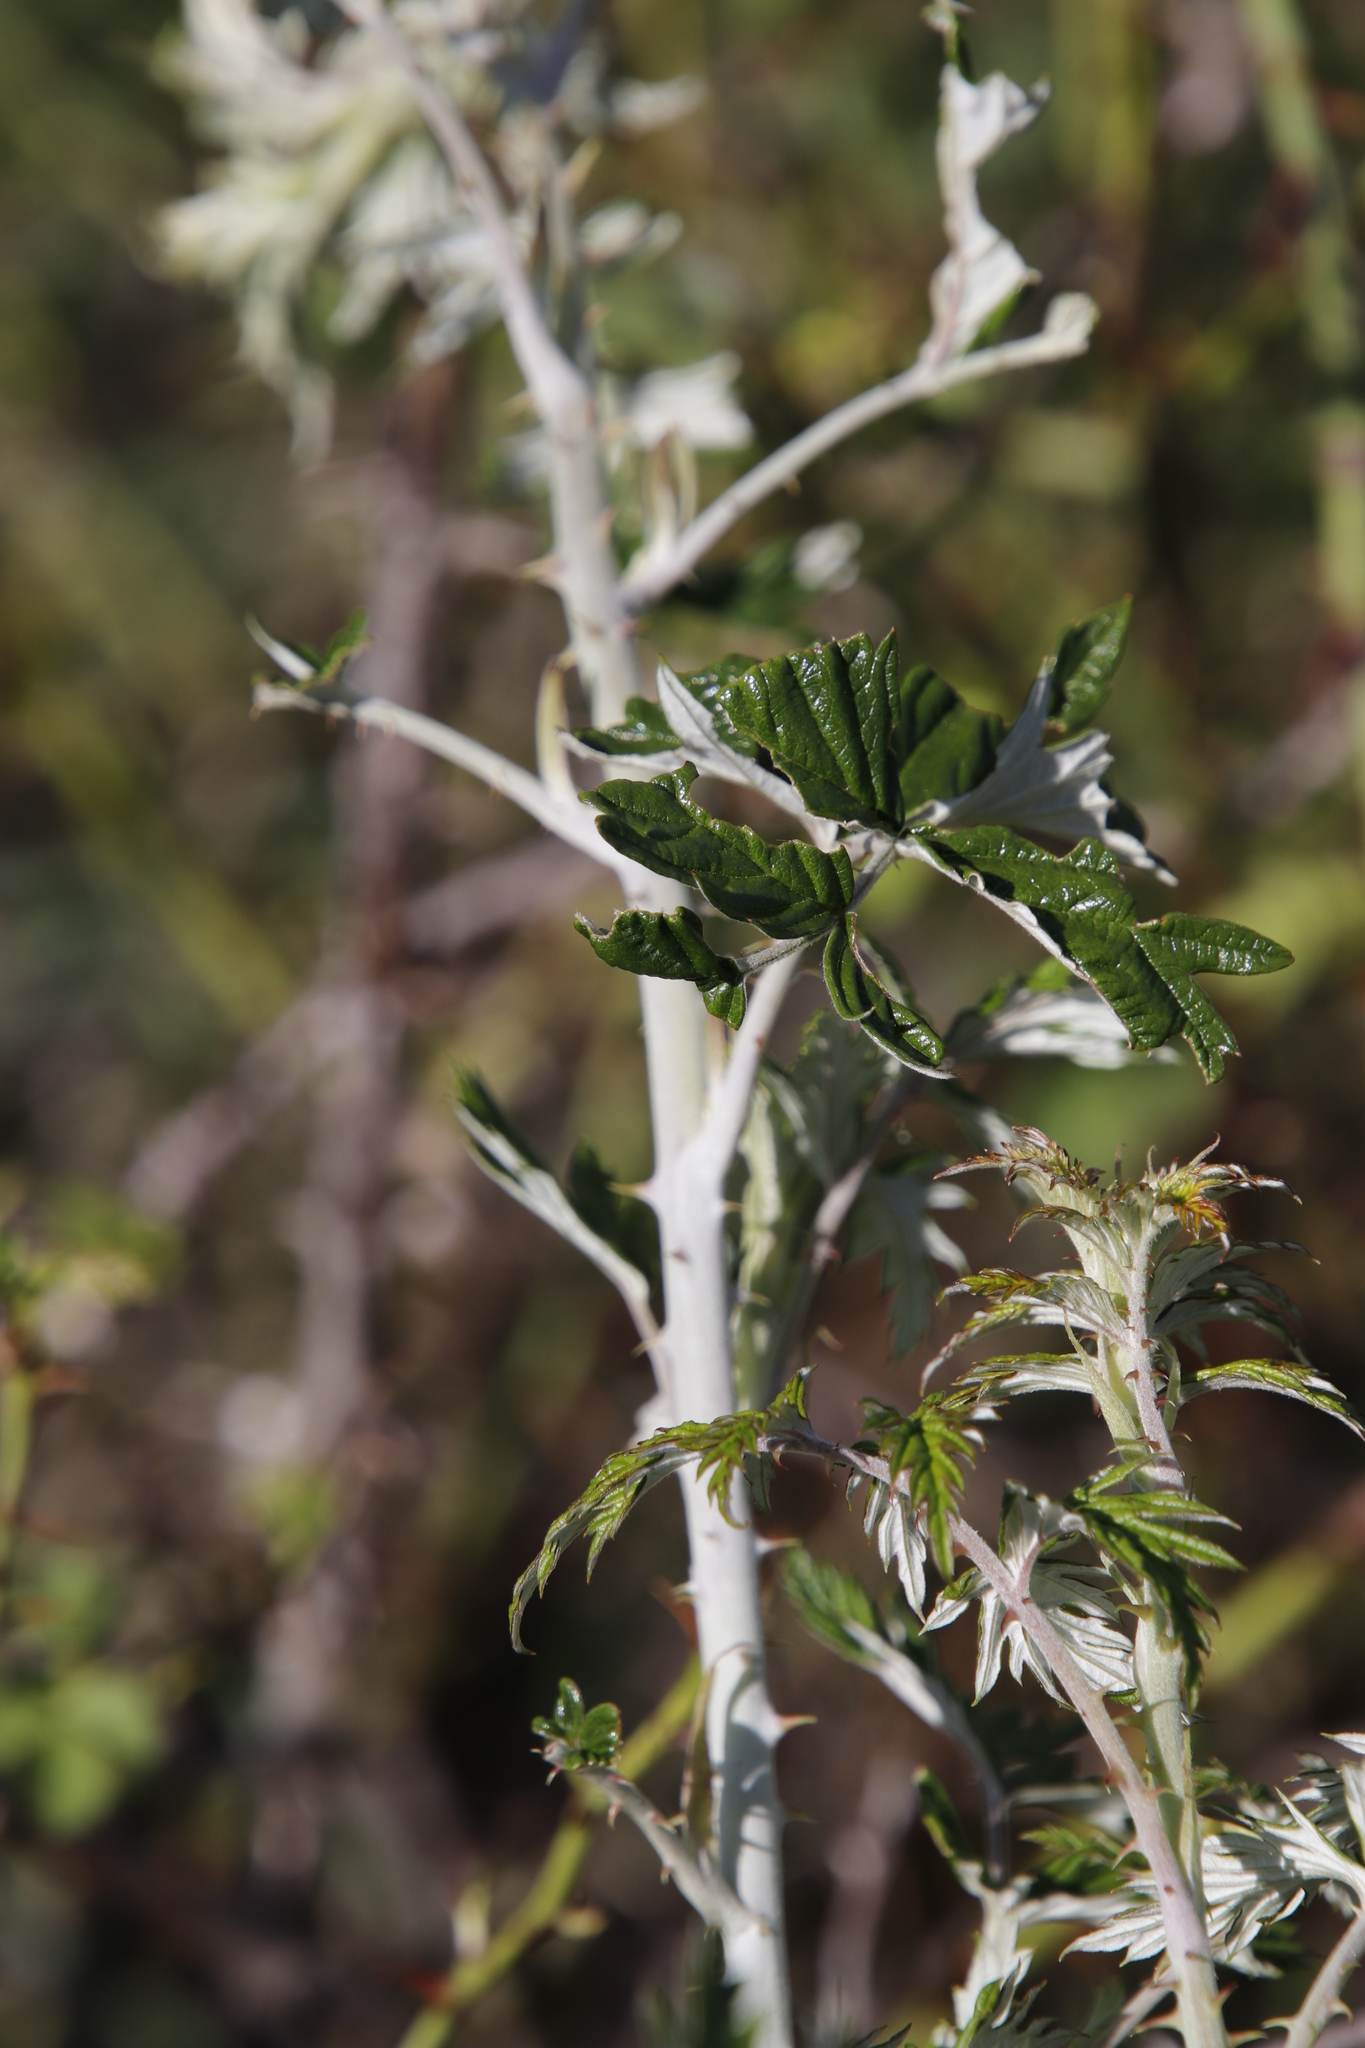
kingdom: Plantae
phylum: Tracheophyta
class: Magnoliopsida
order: Rosales
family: Rosaceae
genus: Rubus
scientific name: Rubus ludwigii
